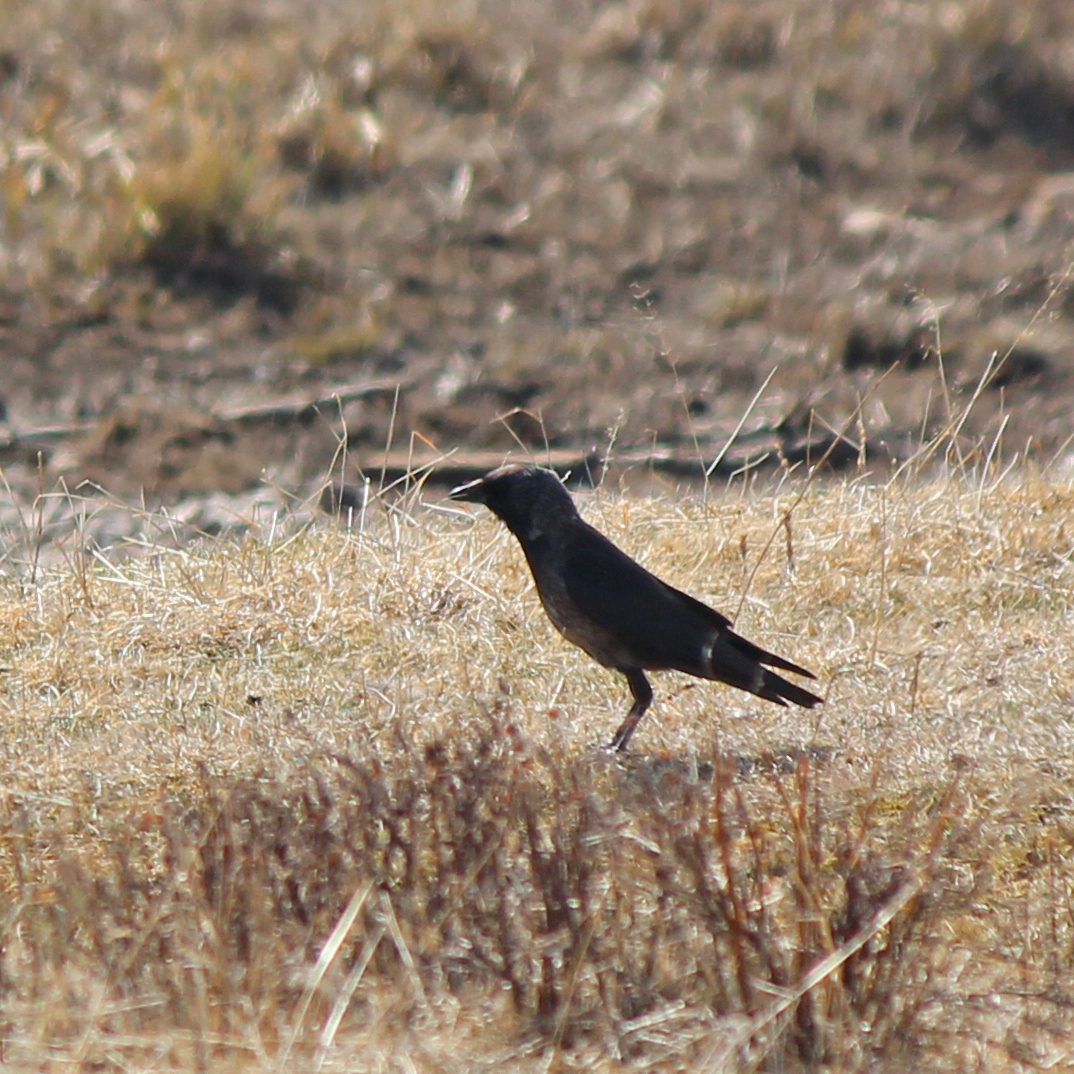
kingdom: Animalia
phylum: Chordata
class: Aves
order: Passeriformes
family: Corvidae
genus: Coloeus
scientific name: Coloeus dauuricus
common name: Daurian jackdaw
